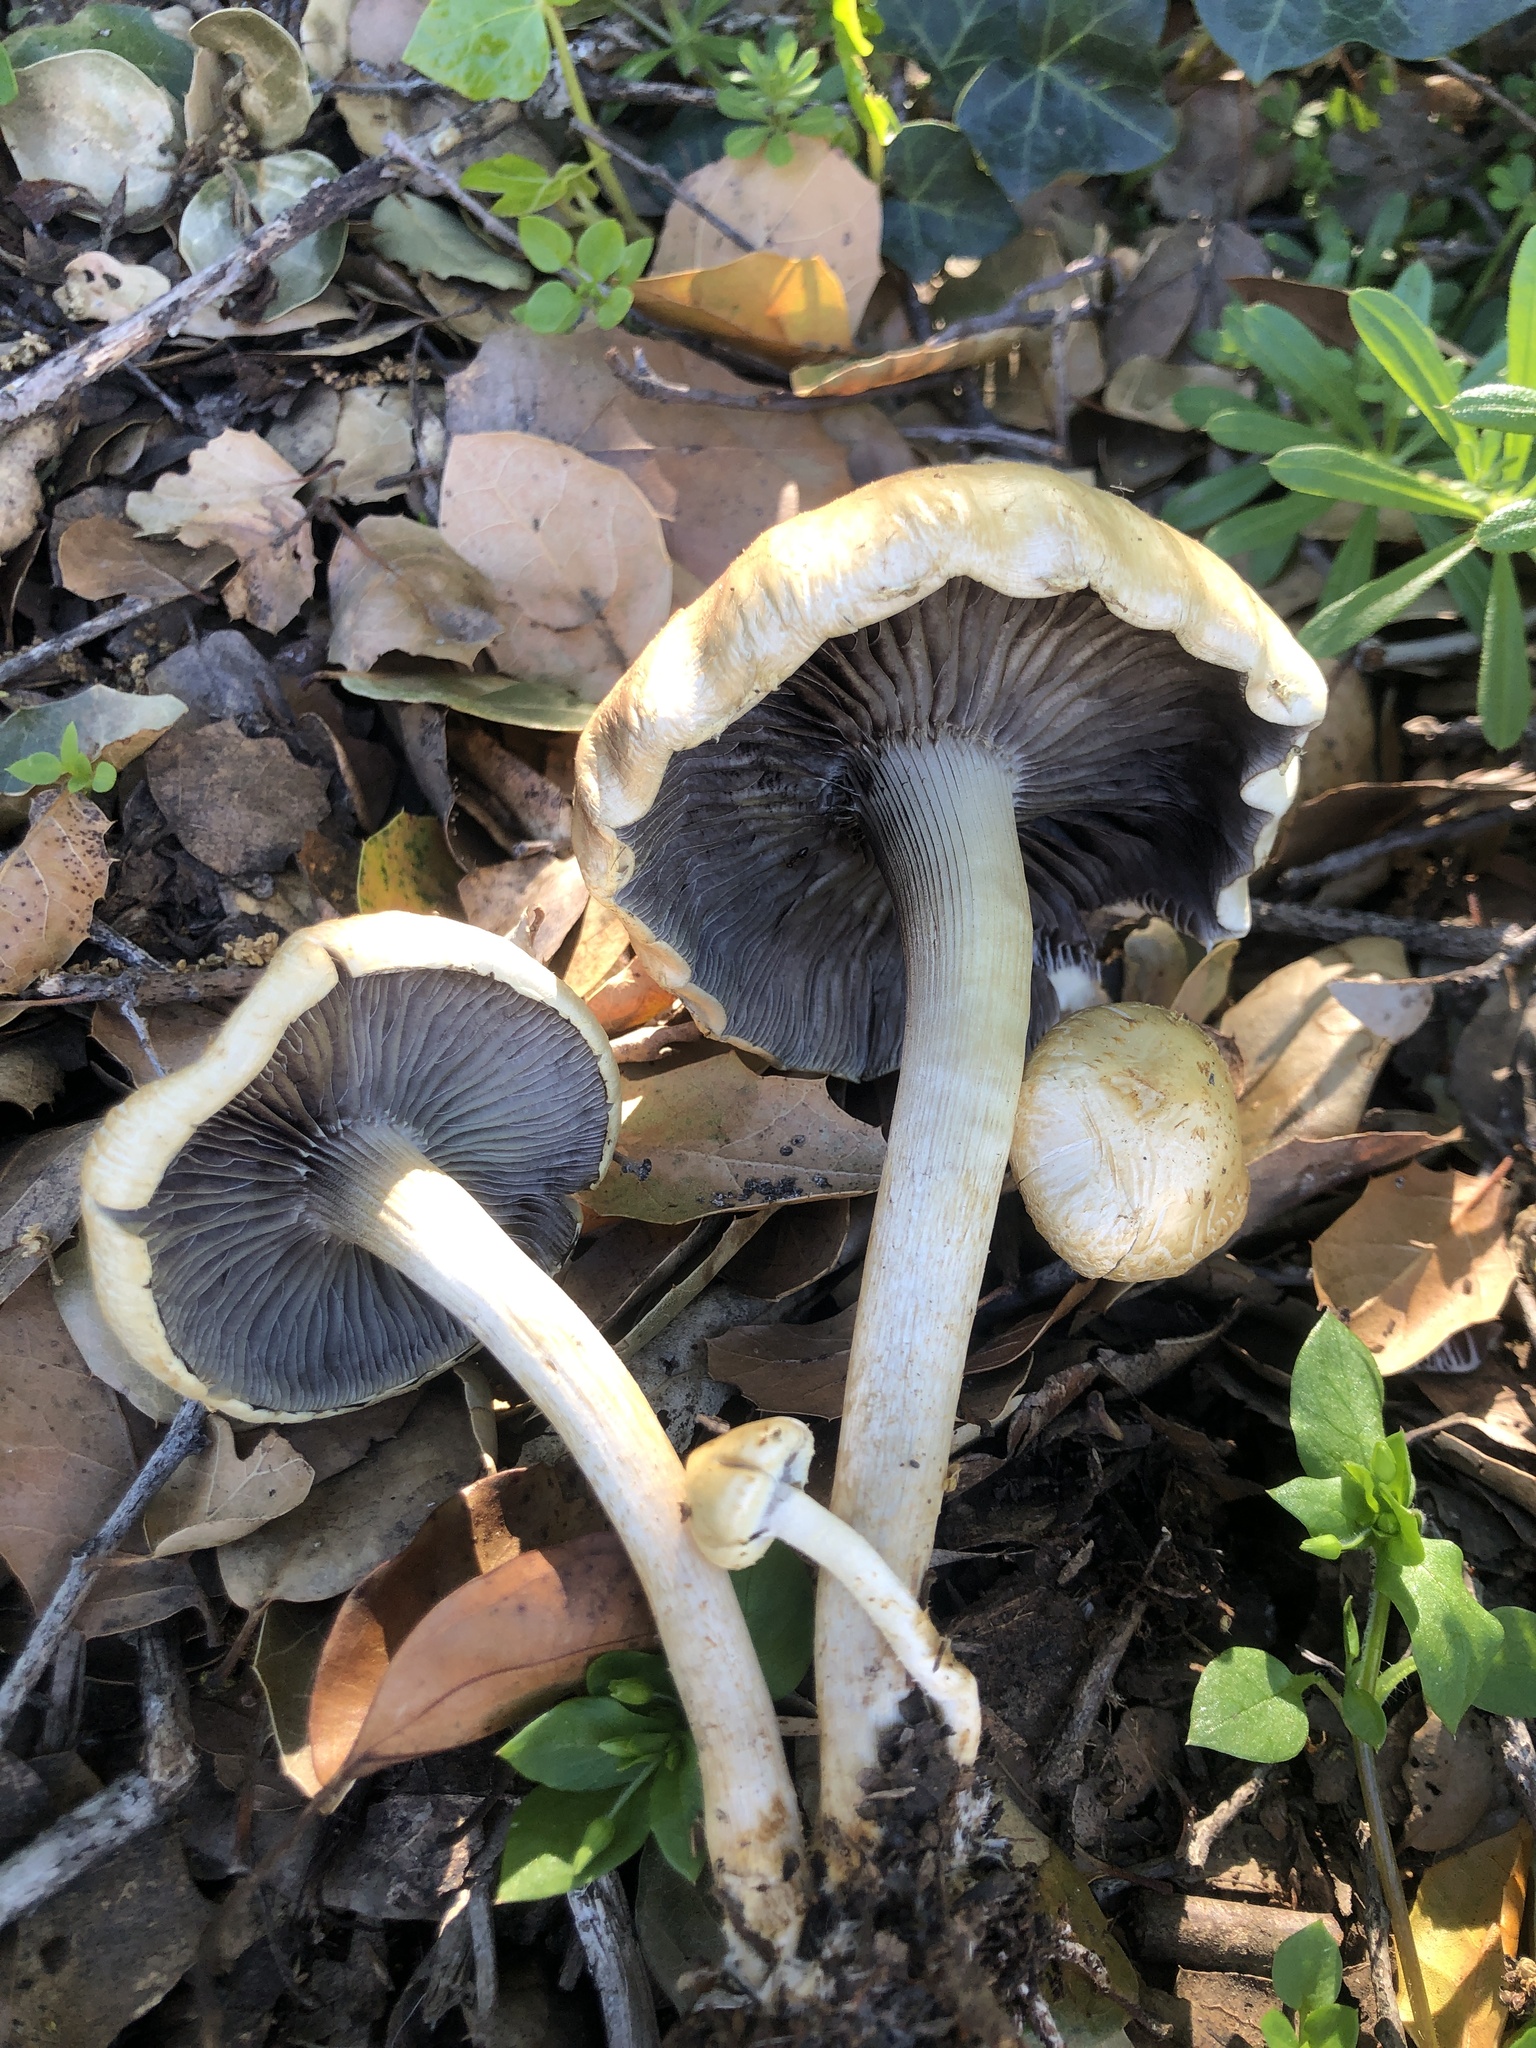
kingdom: Fungi
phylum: Basidiomycota
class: Agaricomycetes
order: Agaricales
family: Strophariaceae
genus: Leratiomyces
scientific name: Leratiomyces percevalii
